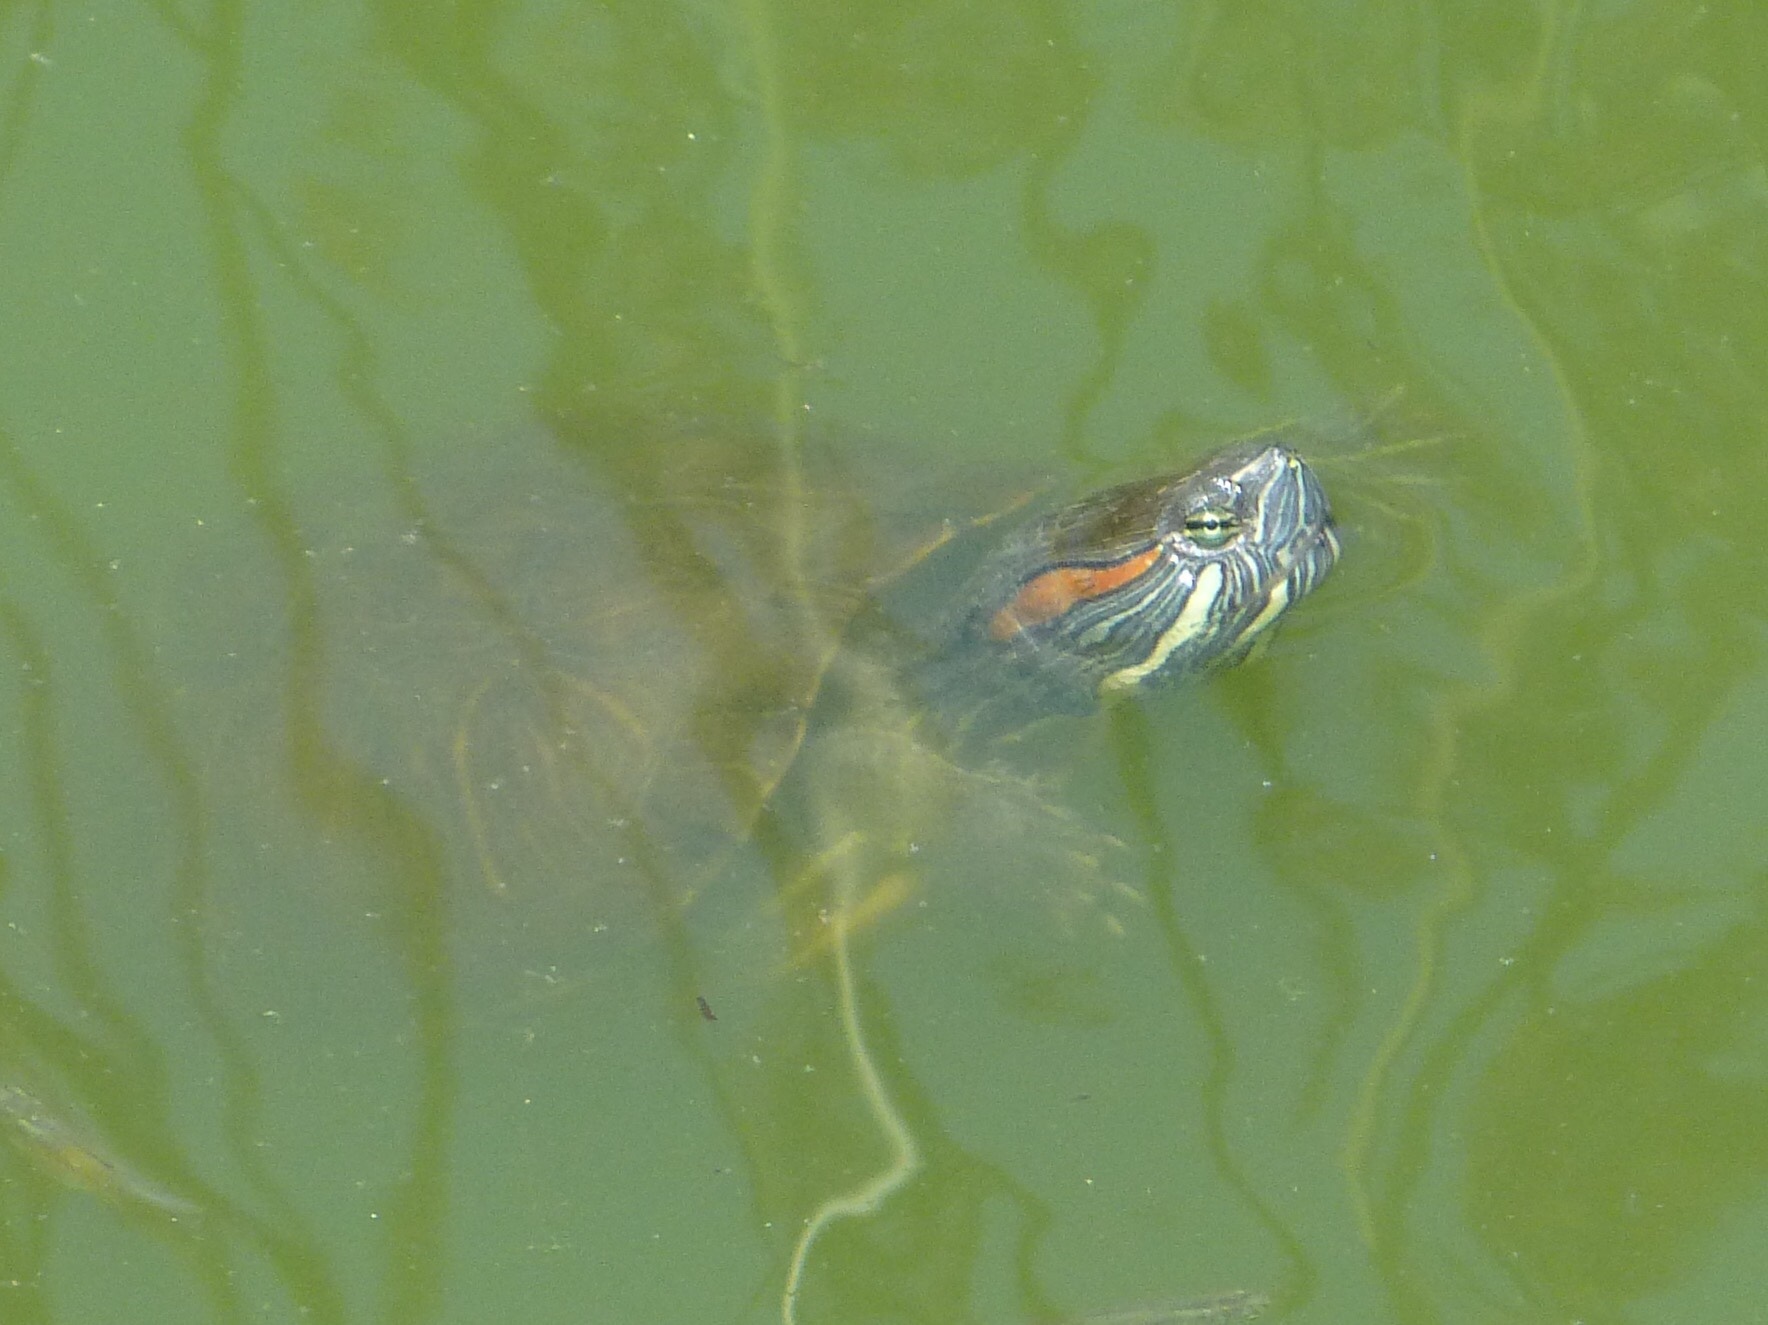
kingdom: Animalia
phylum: Chordata
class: Testudines
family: Emydidae
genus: Trachemys
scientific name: Trachemys scripta
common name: Slider
